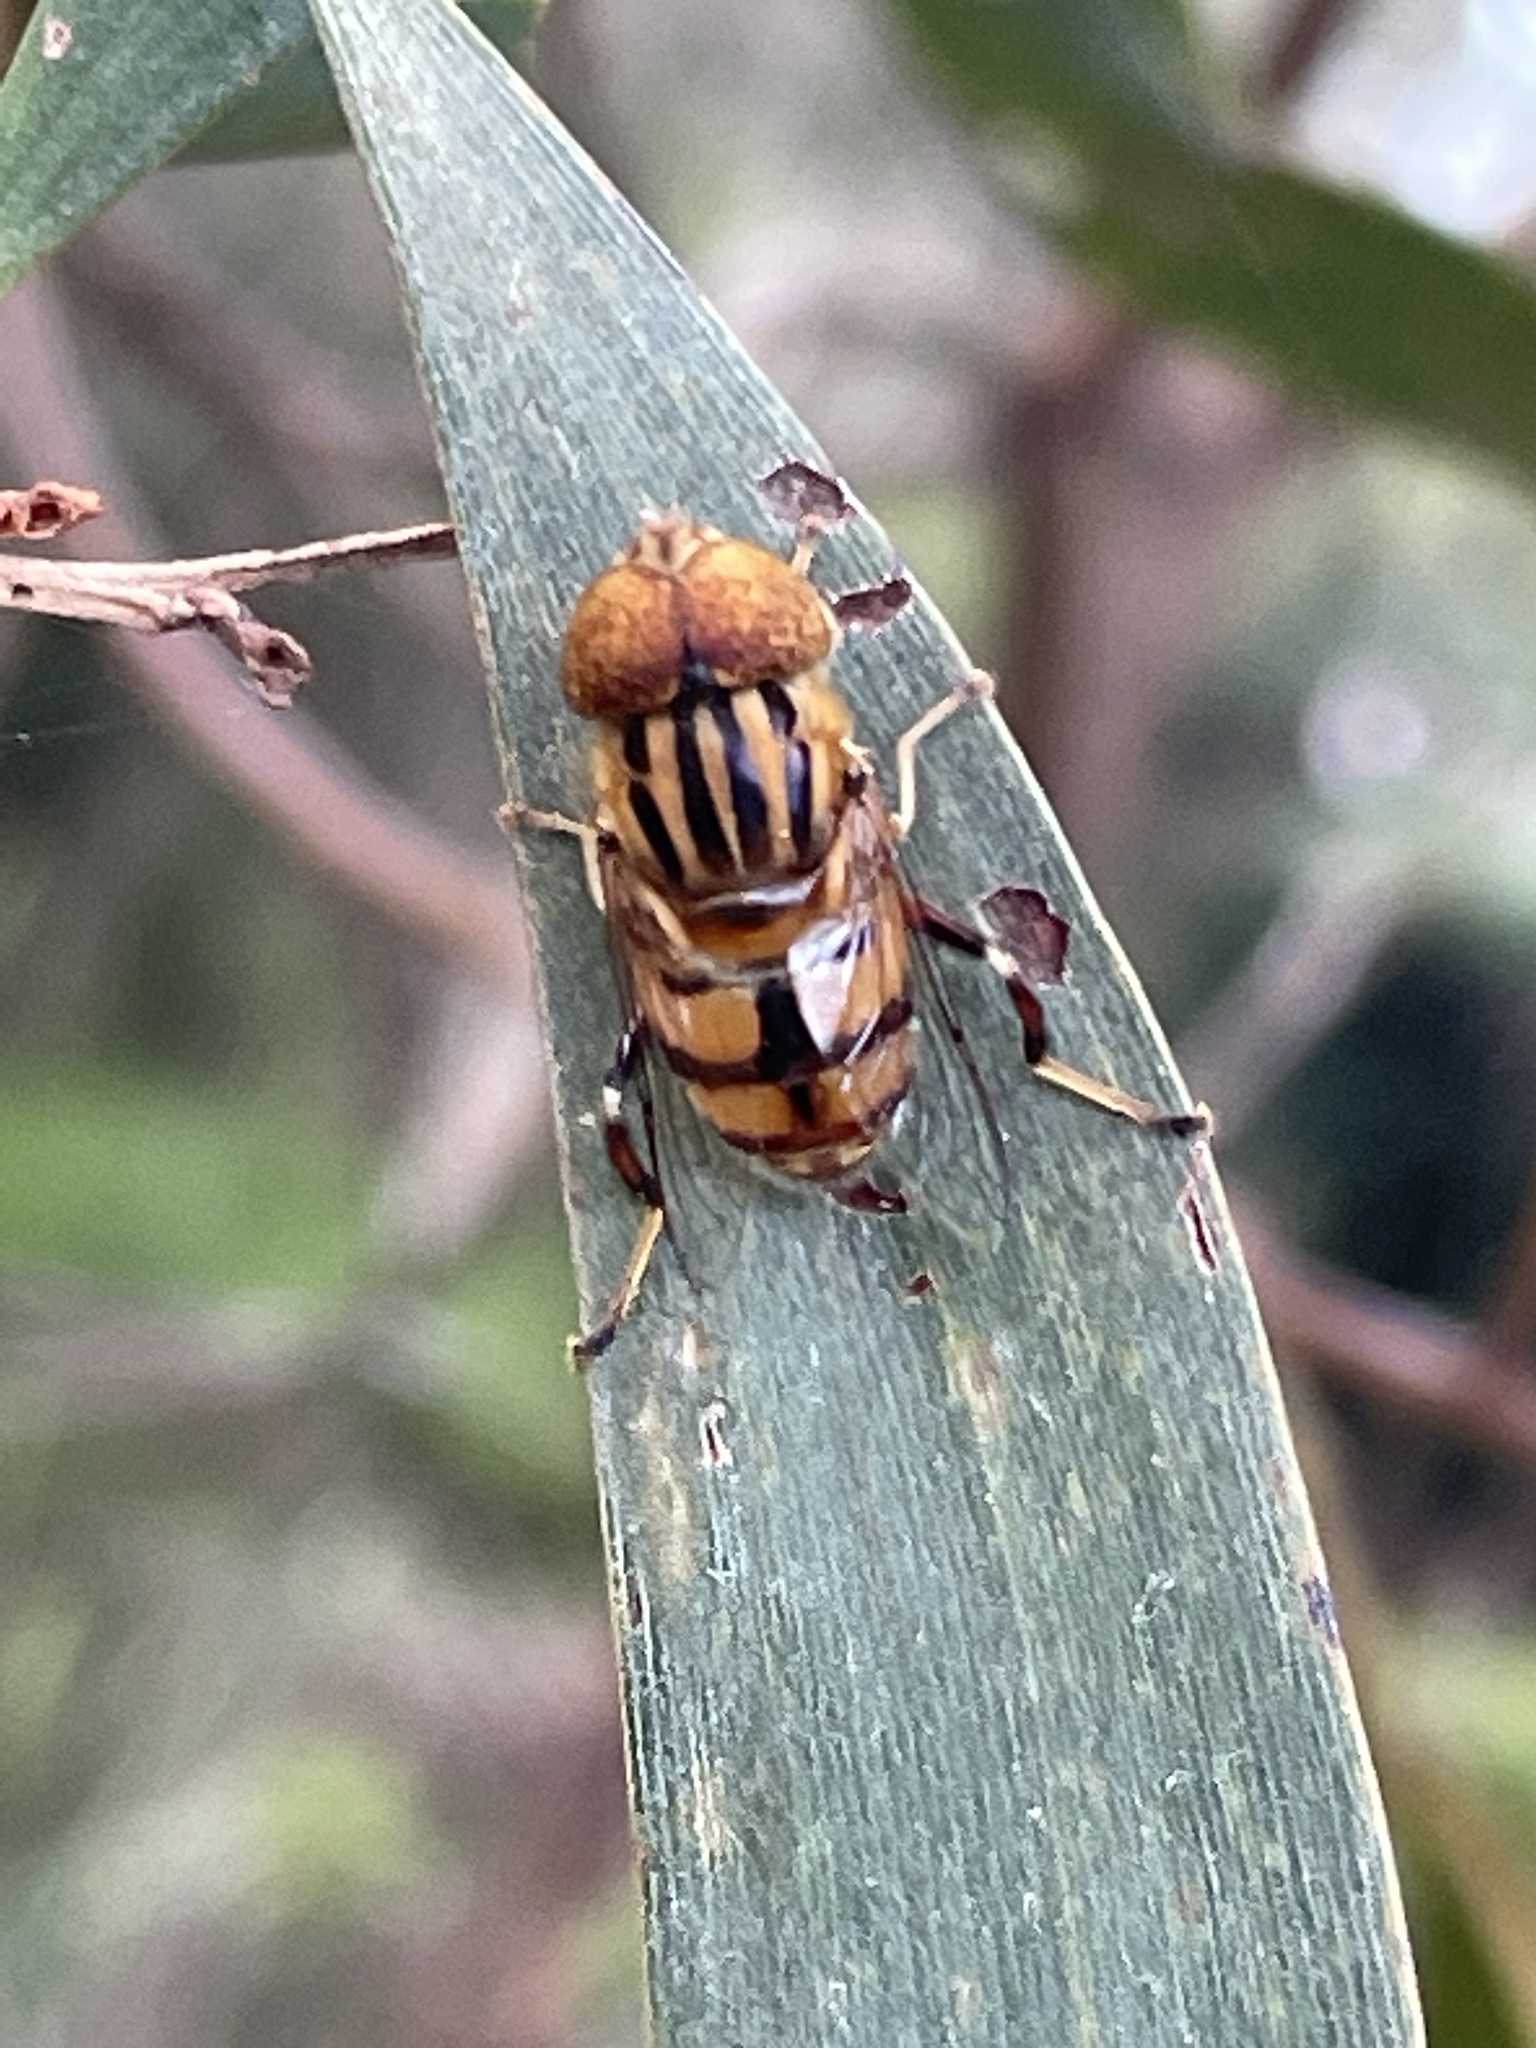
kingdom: Animalia
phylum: Arthropoda
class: Insecta
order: Diptera
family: Syrphidae
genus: Eristalinus
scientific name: Eristalinus punctulatus
